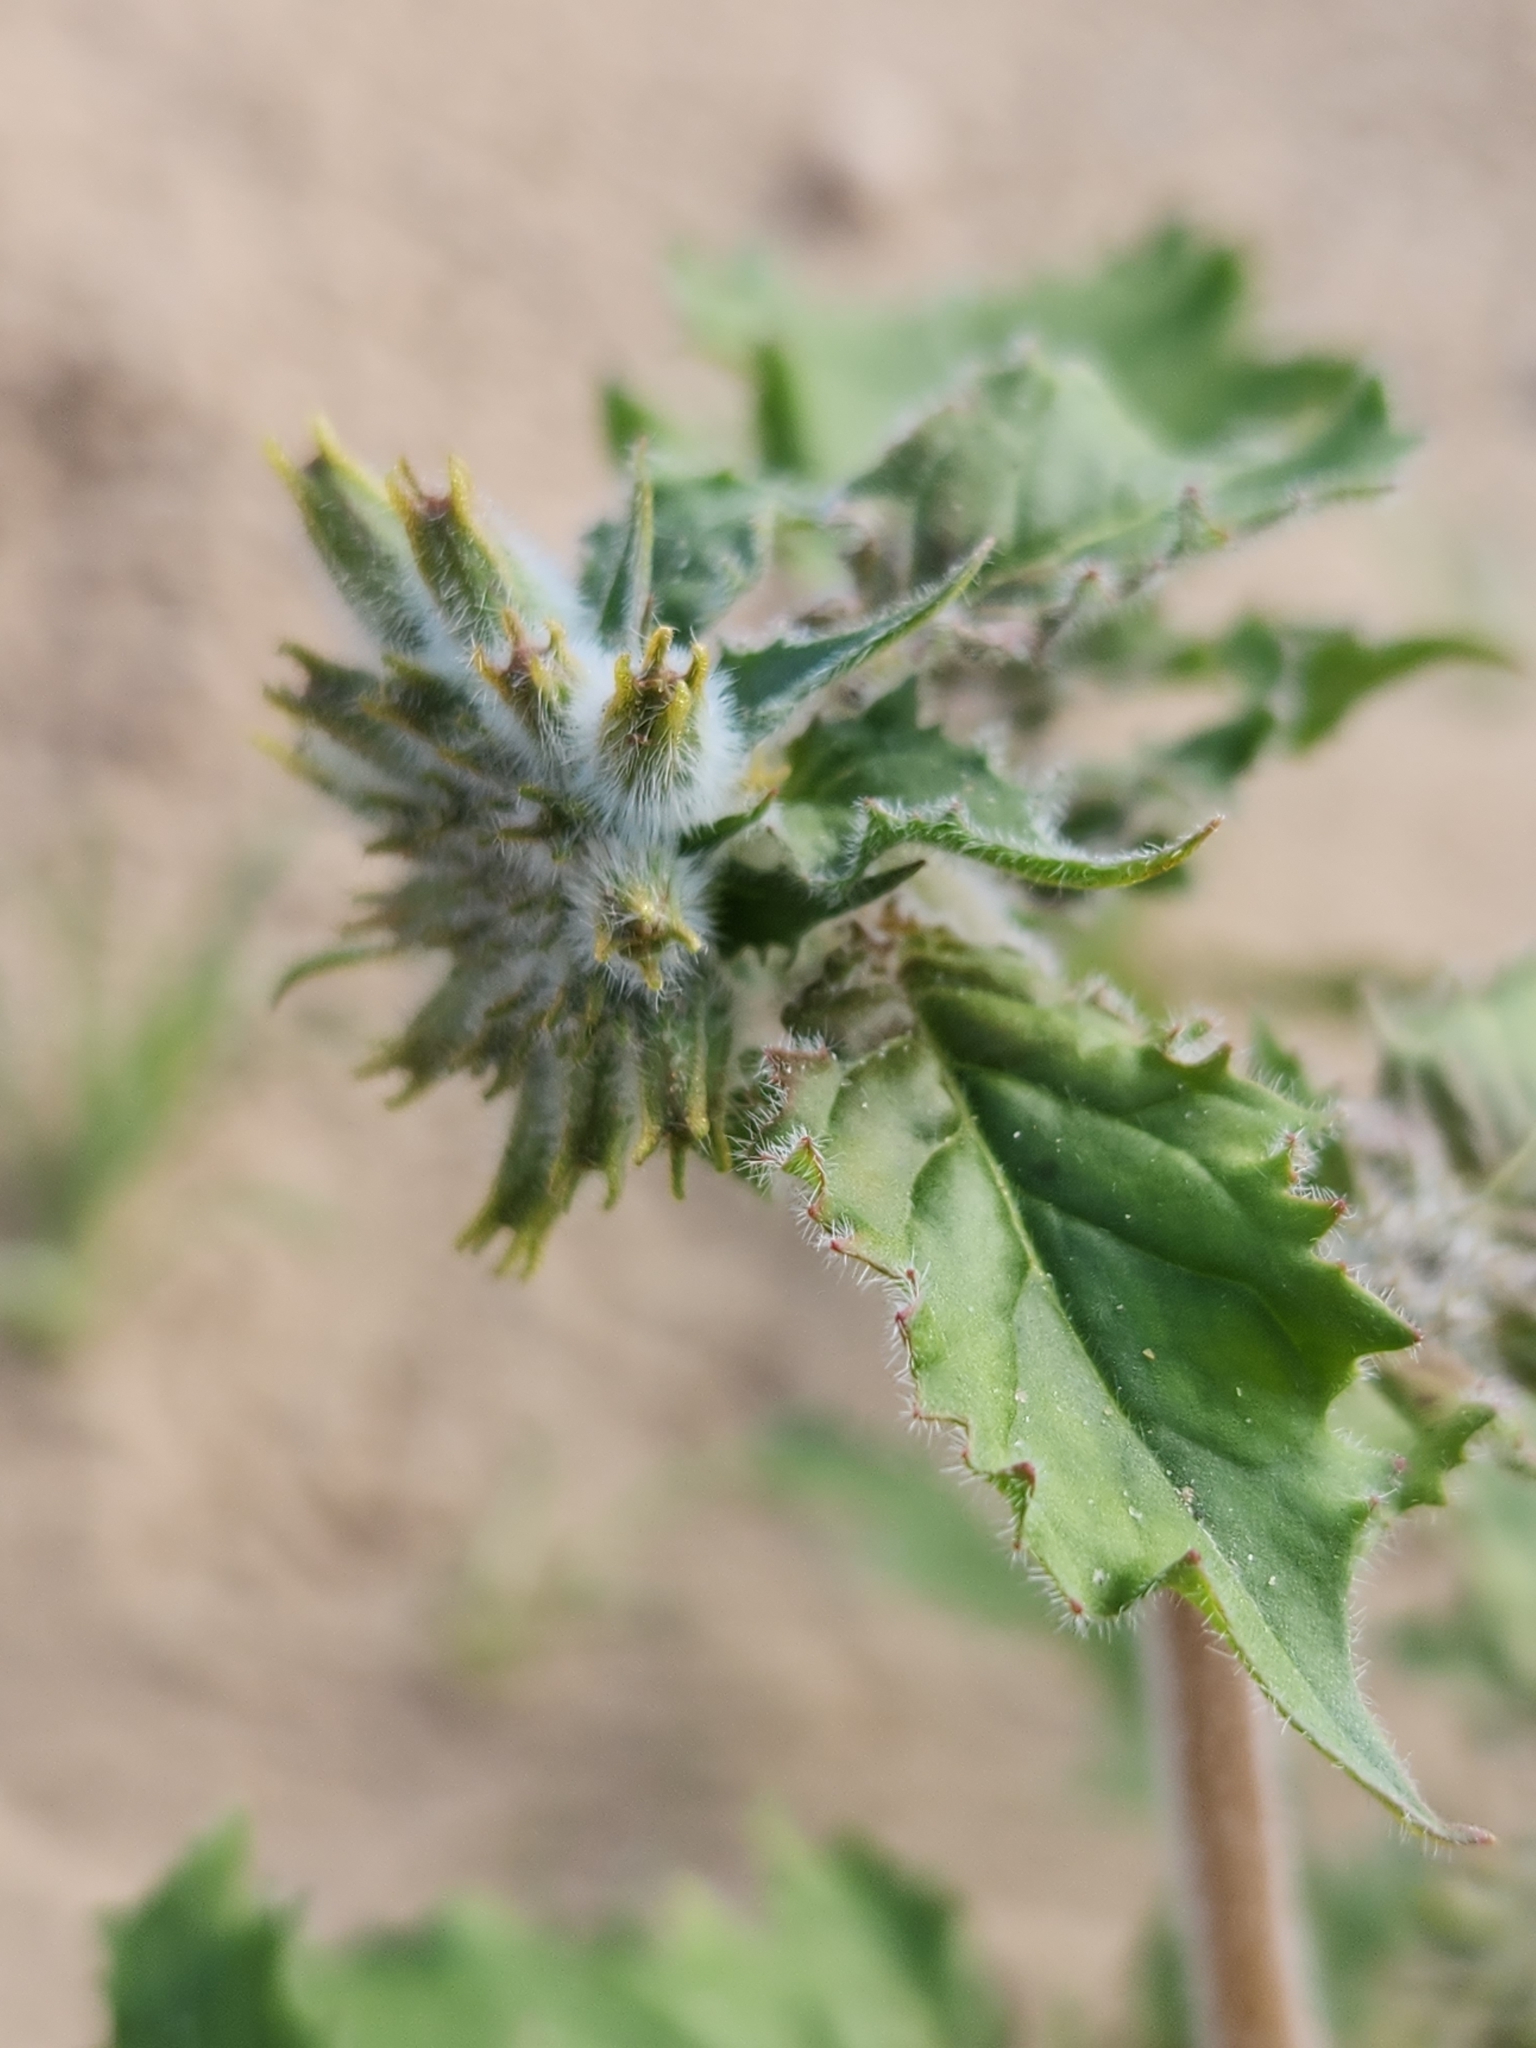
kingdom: Plantae
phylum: Tracheophyta
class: Magnoliopsida
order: Myrtales
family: Onagraceae
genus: Chylismia
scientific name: Chylismia claviformis
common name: Browneyes
